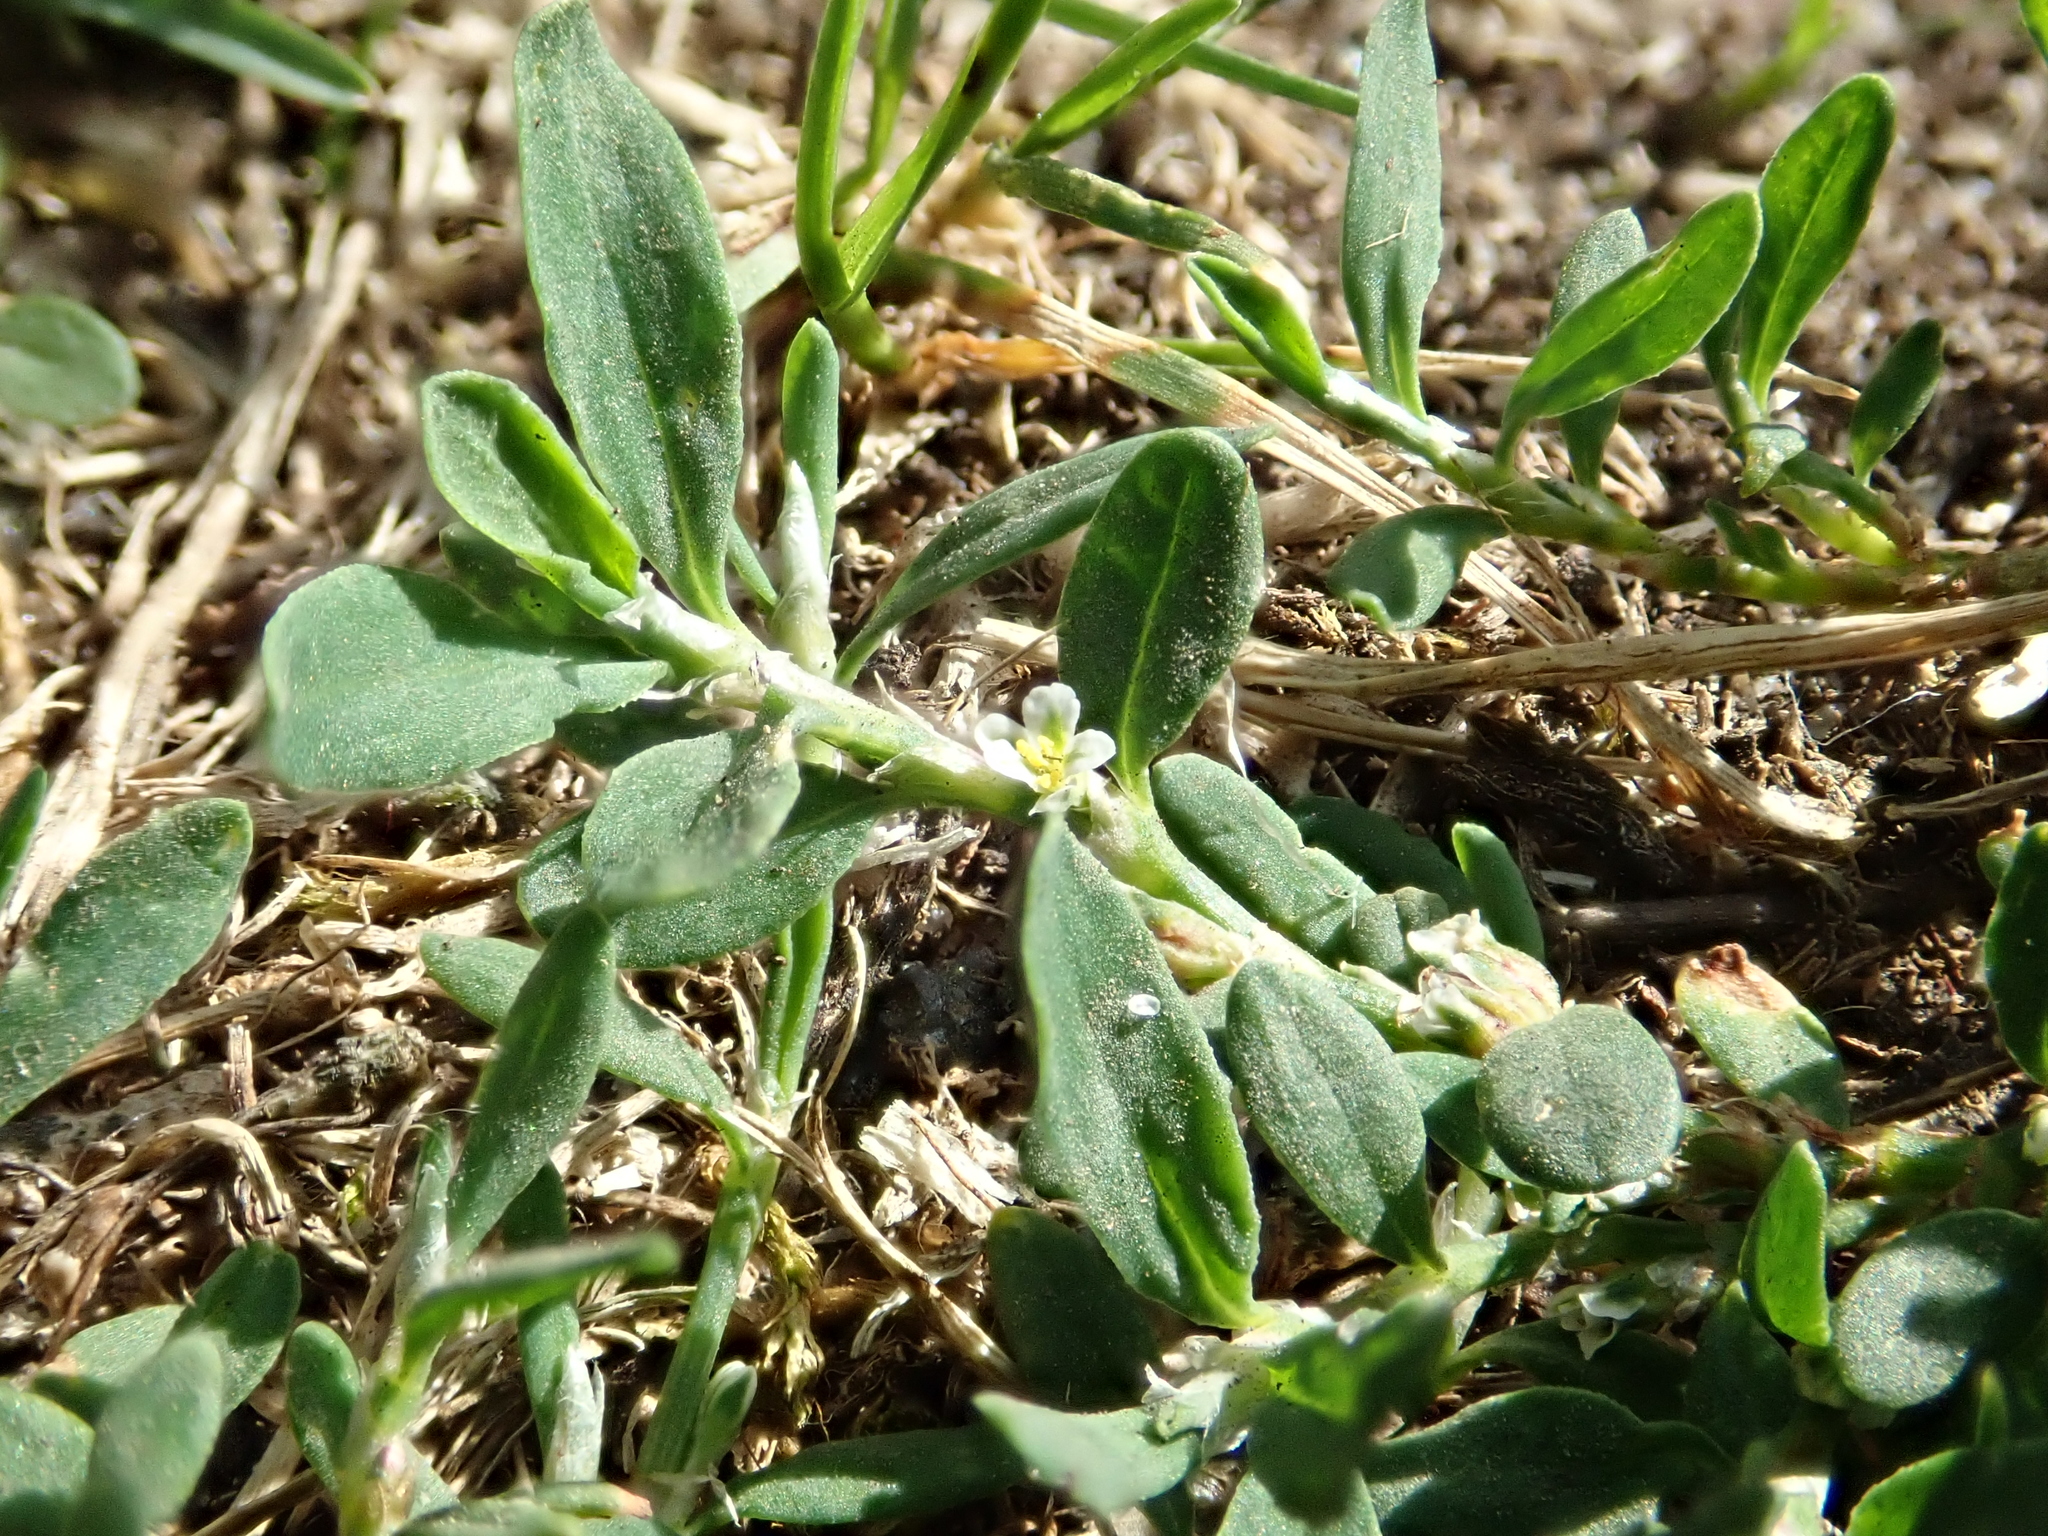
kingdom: Plantae
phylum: Tracheophyta
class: Magnoliopsida
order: Caryophyllales
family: Polygonaceae
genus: Polygonum
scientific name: Polygonum aviculare
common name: Prostrate knotweed
